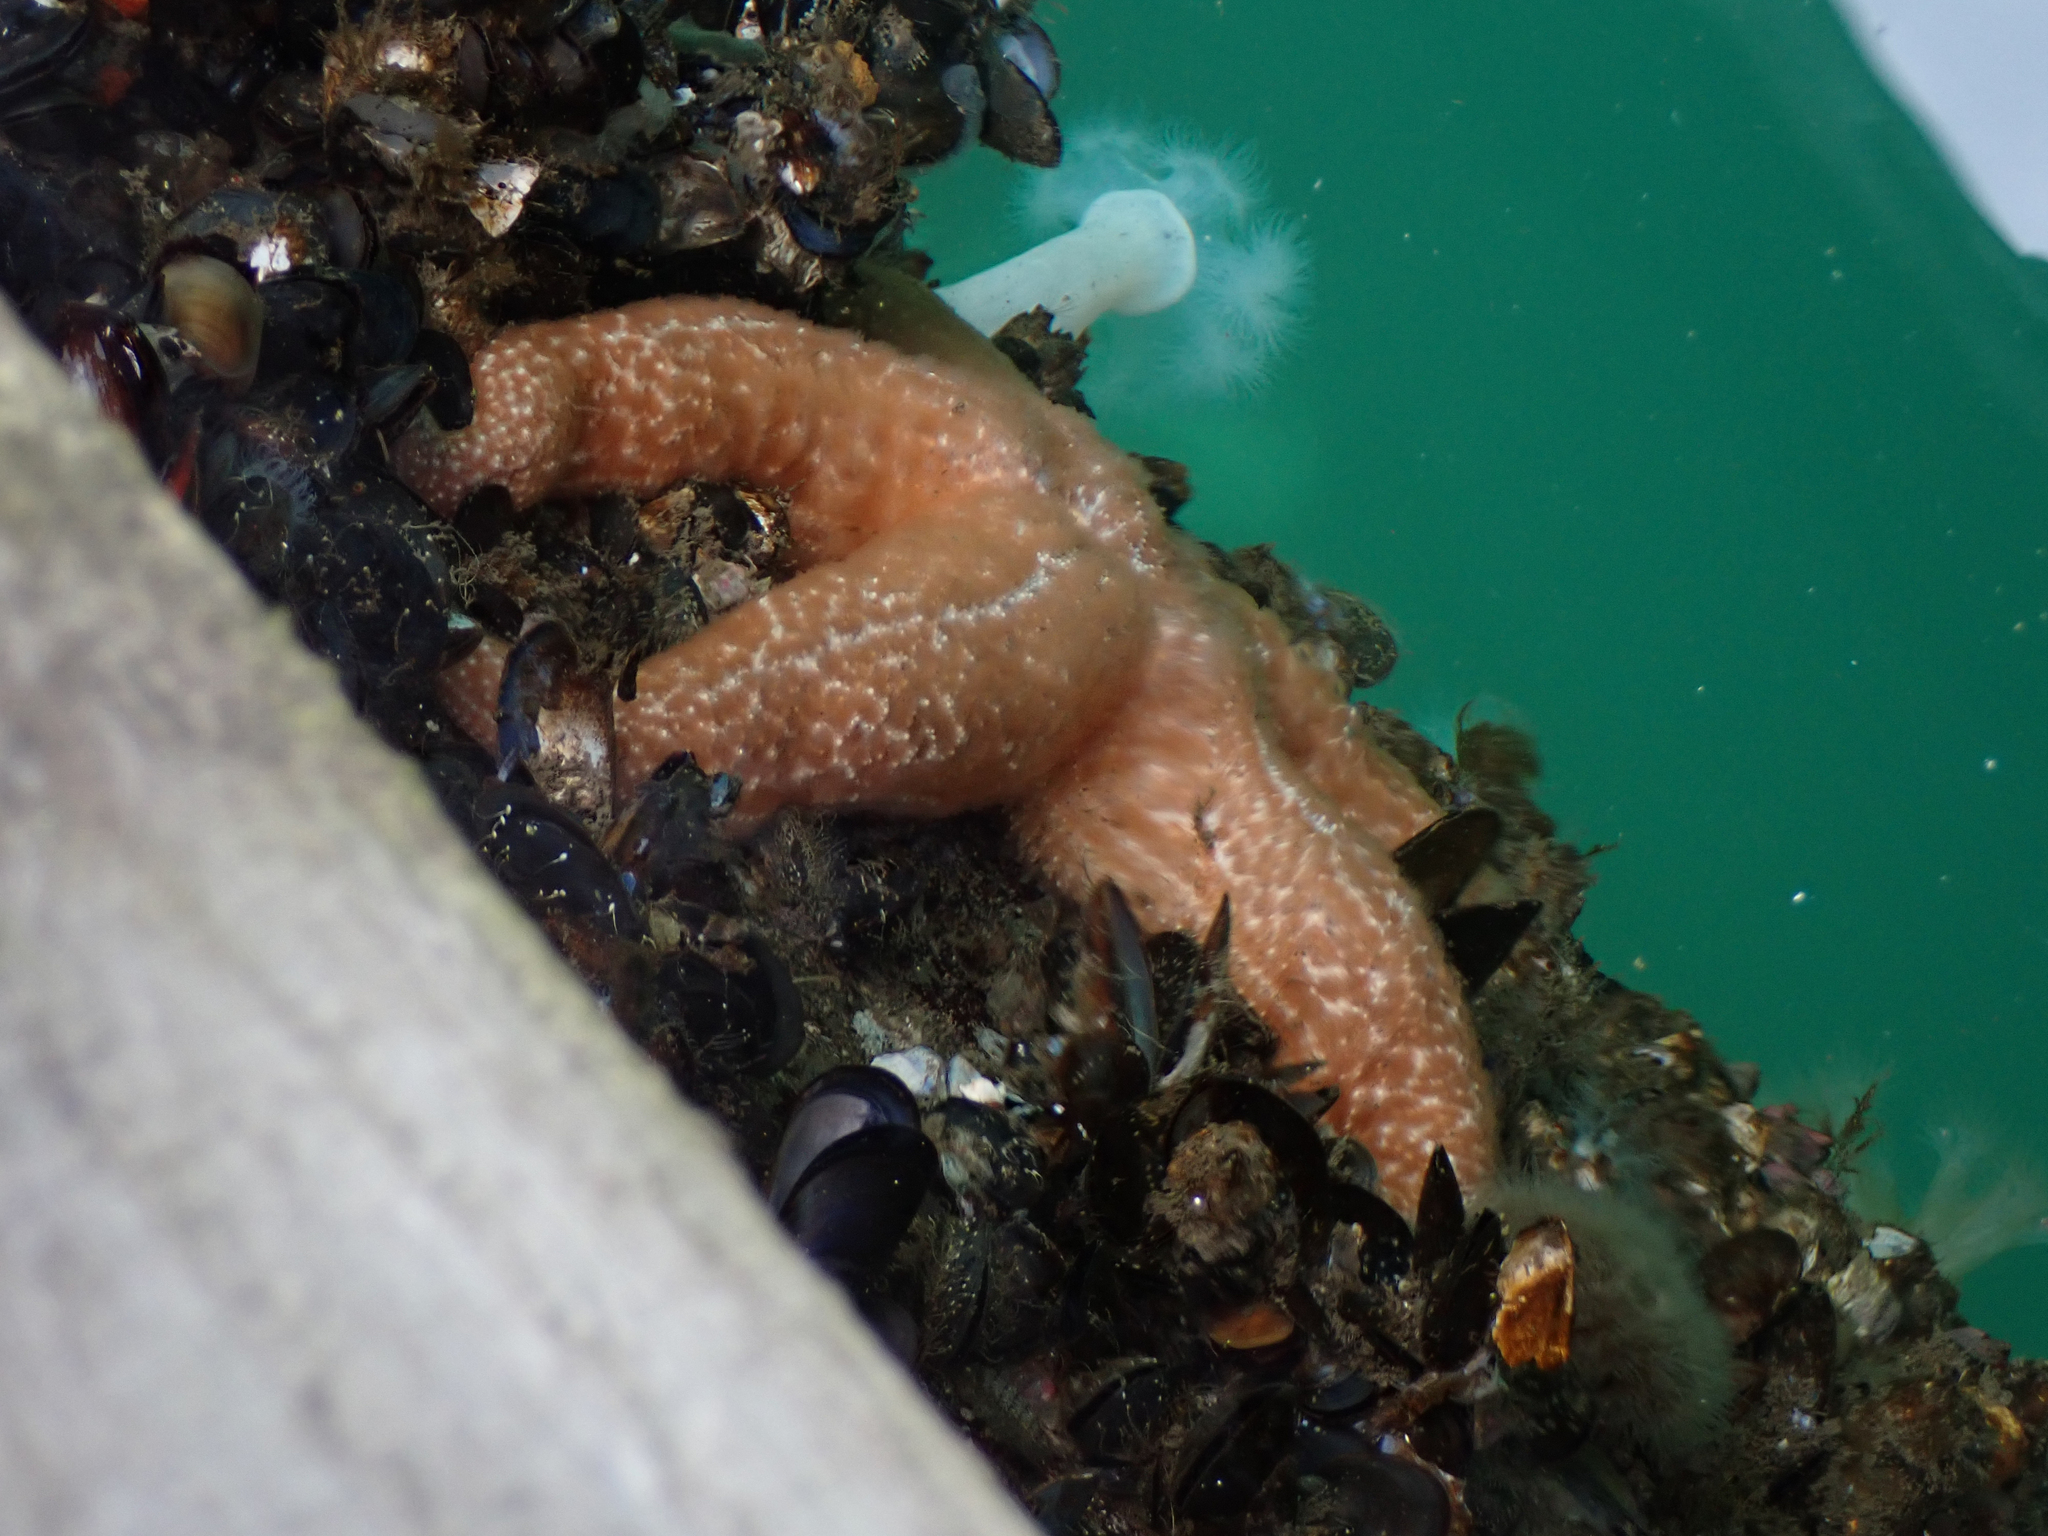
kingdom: Animalia
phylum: Echinodermata
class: Asteroidea
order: Forcipulatida
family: Asteriidae
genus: Evasterias
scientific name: Evasterias troschelii
